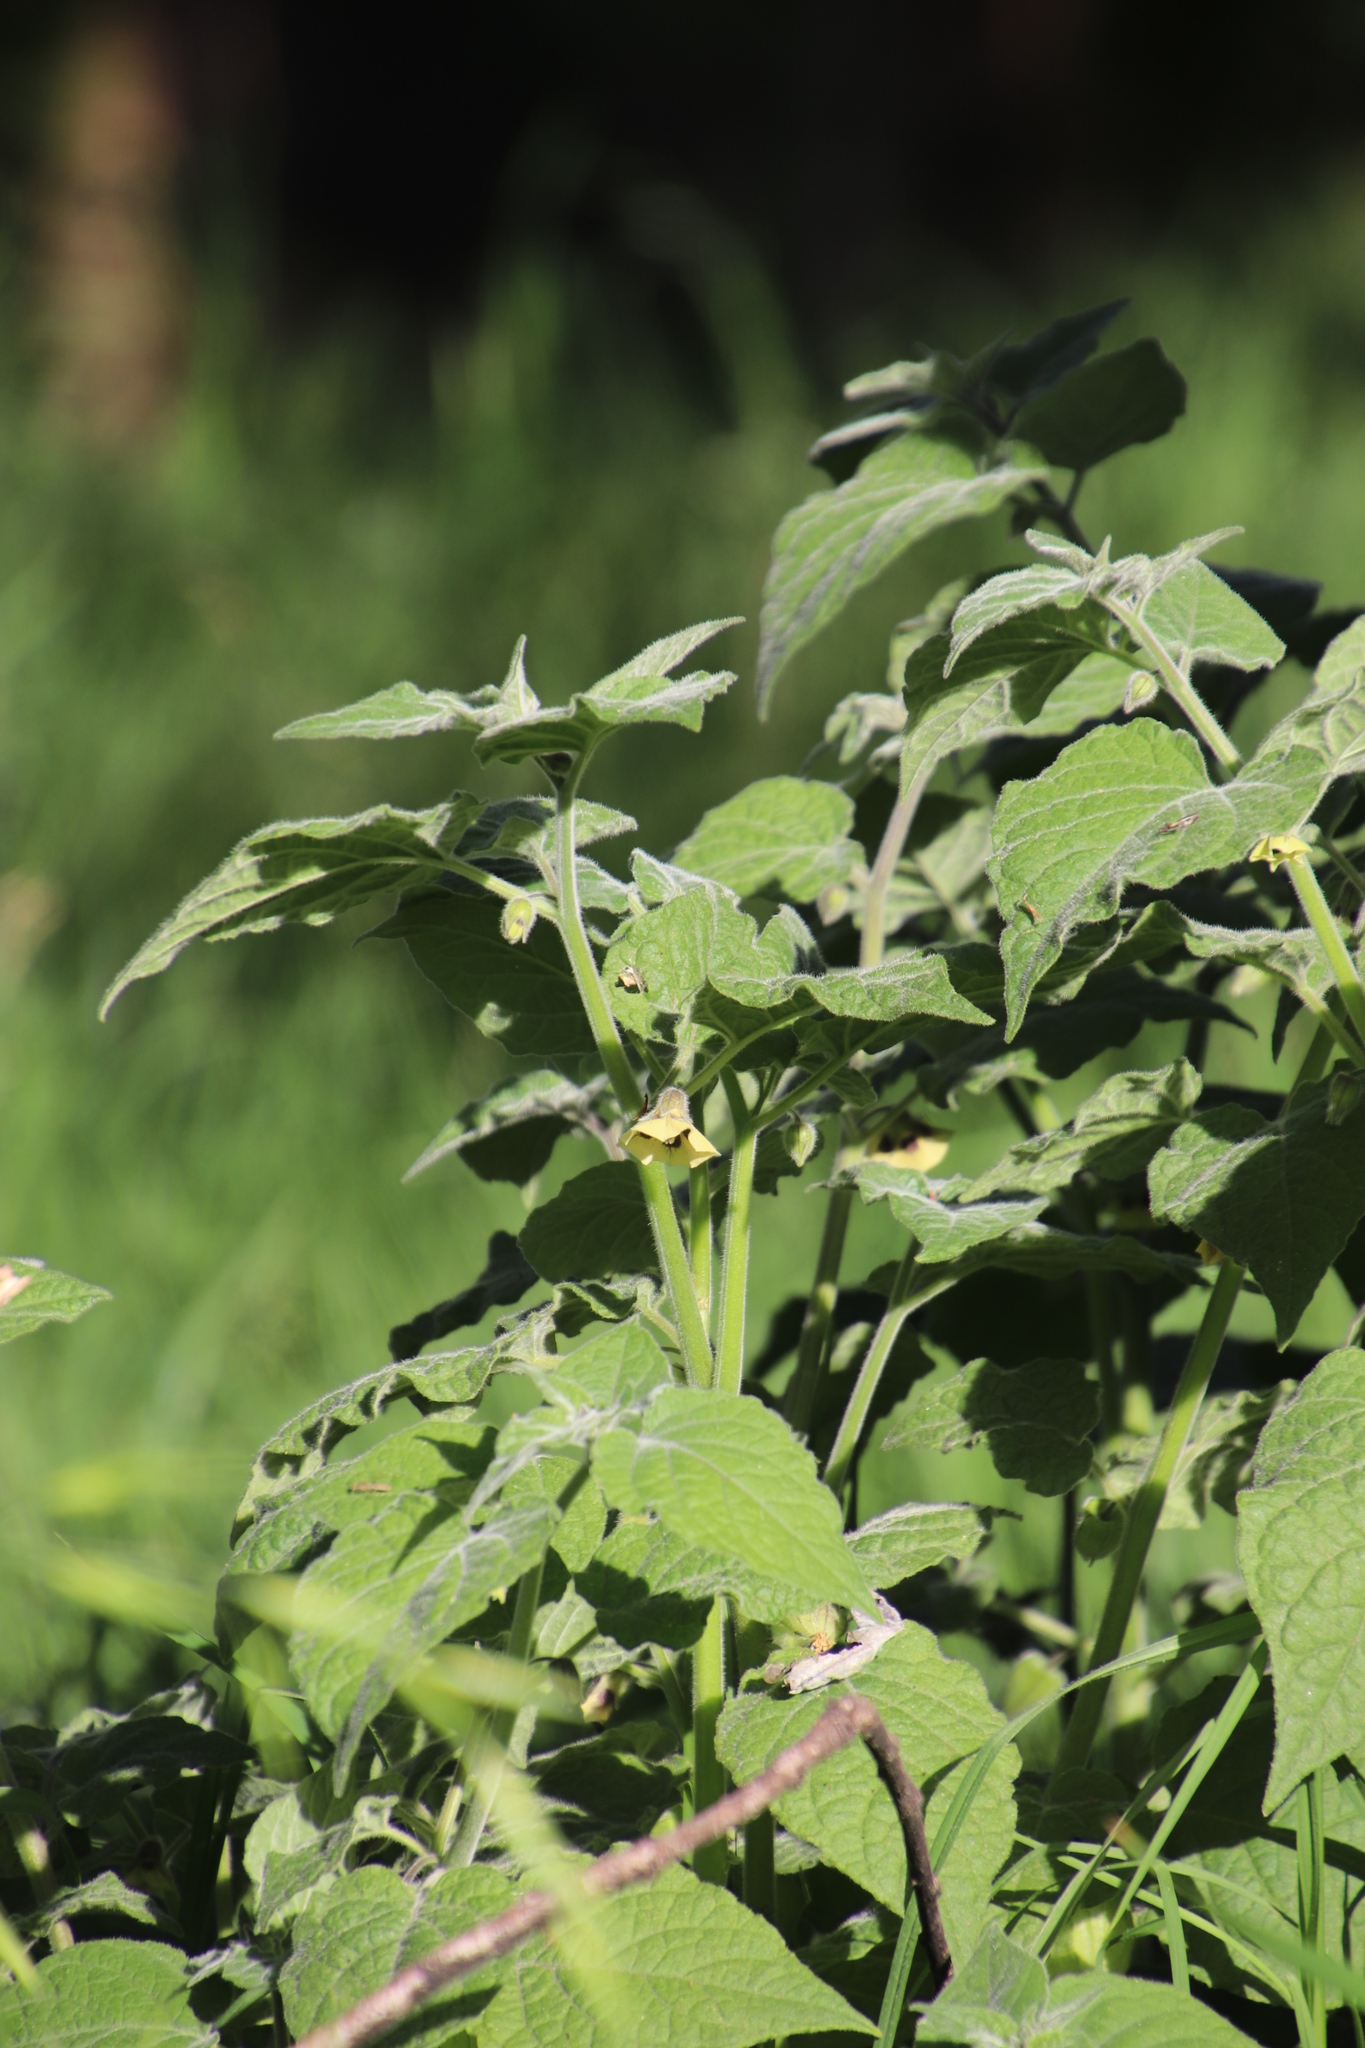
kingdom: Plantae
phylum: Tracheophyta
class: Magnoliopsida
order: Solanales
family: Solanaceae
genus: Physalis
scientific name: Physalis peruviana
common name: Cape-gooseberry
